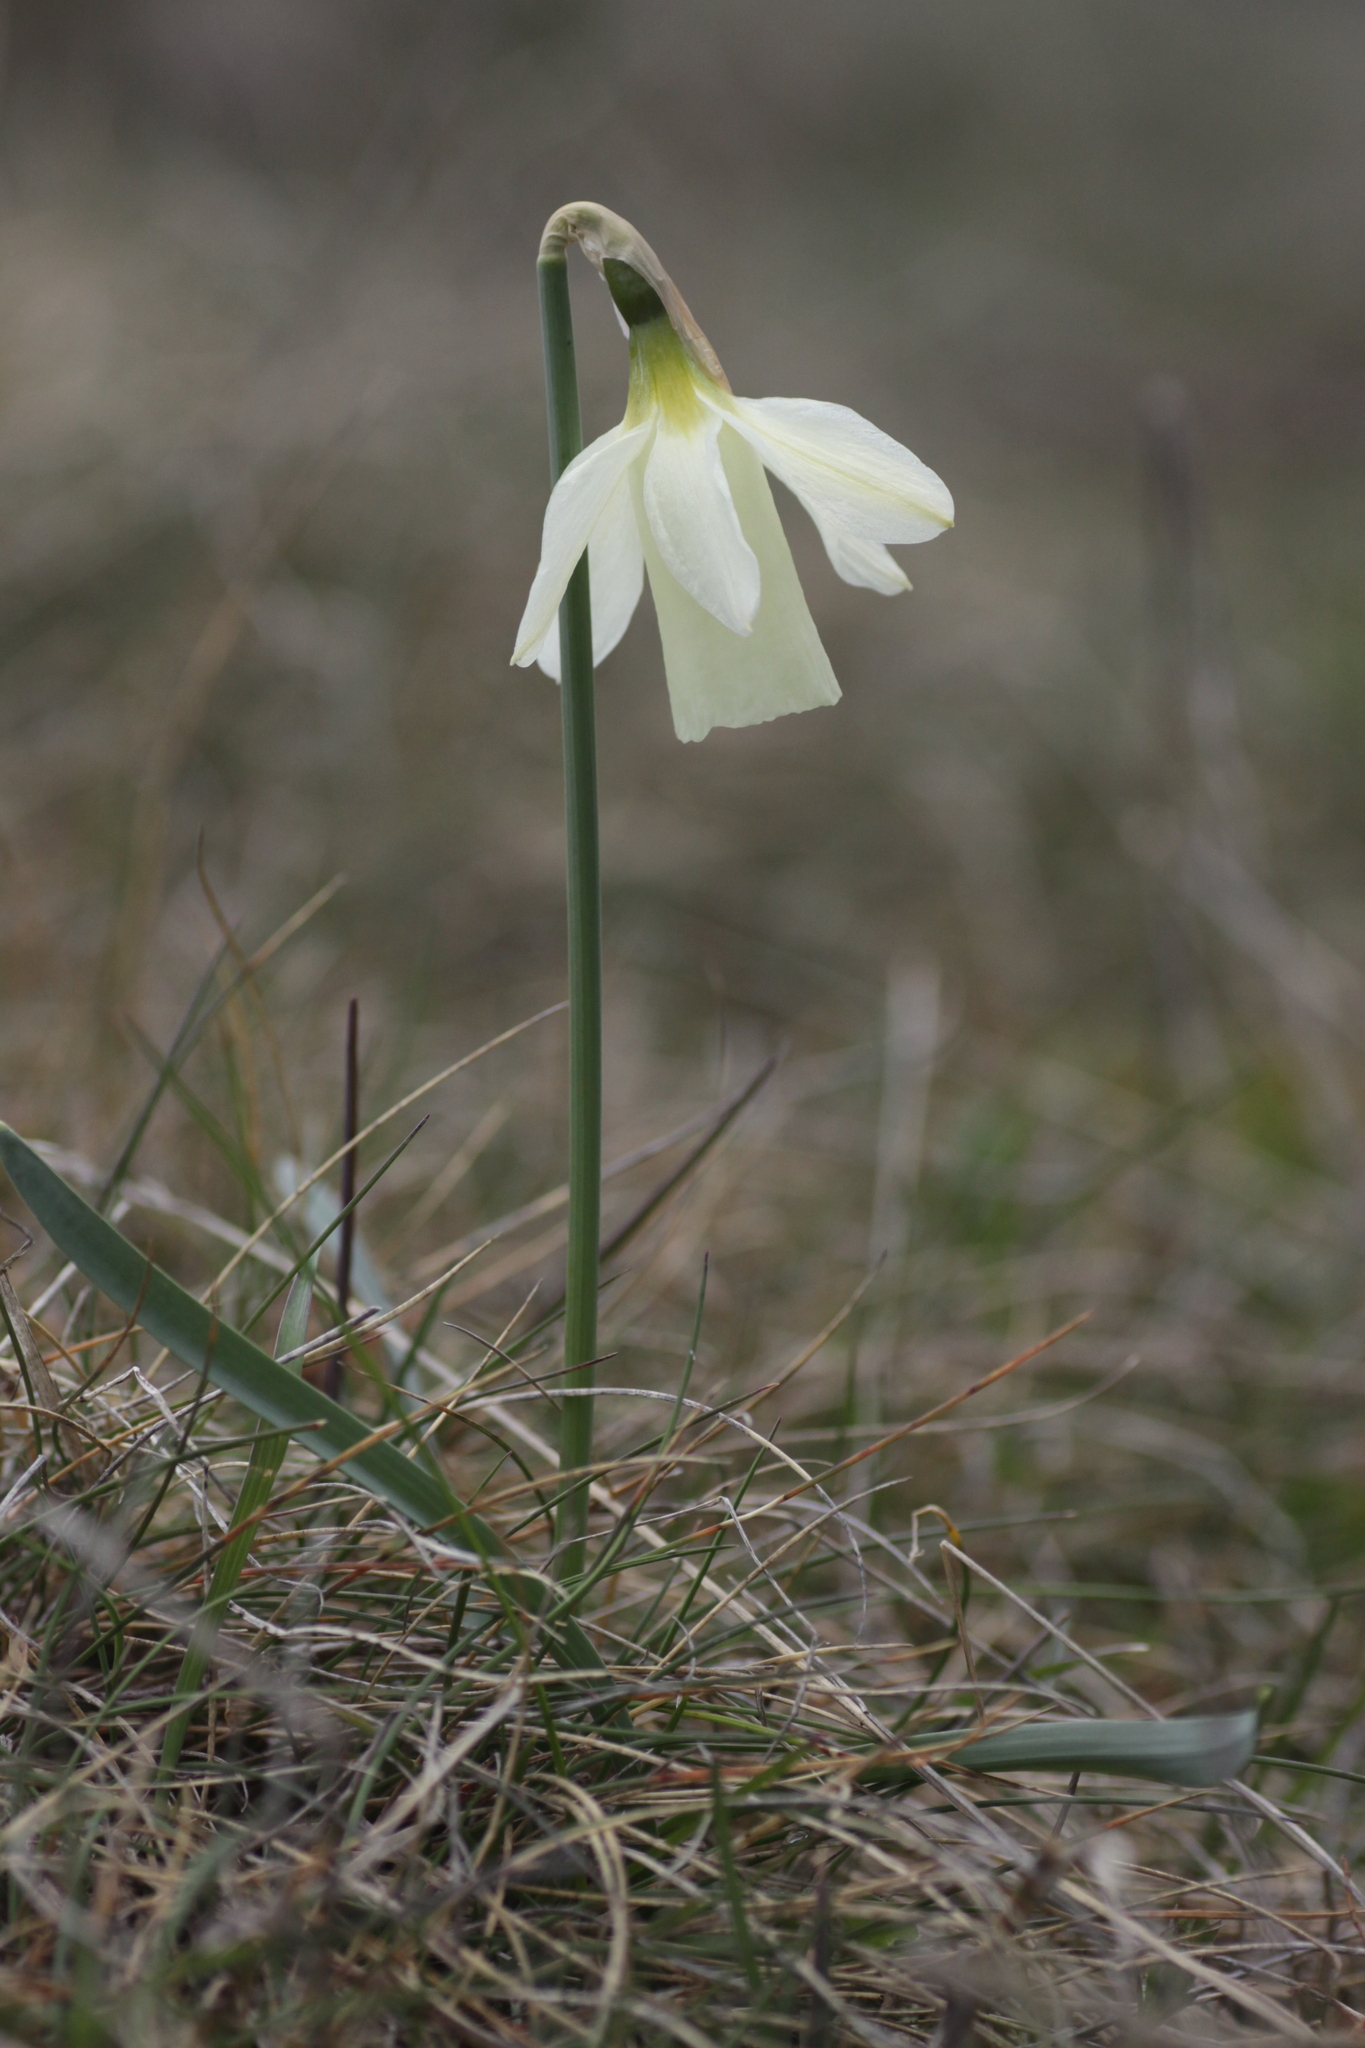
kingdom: Plantae
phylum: Tracheophyta
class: Liliopsida
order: Asparagales
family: Amaryllidaceae
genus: Narcissus
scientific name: Narcissus moschatus
